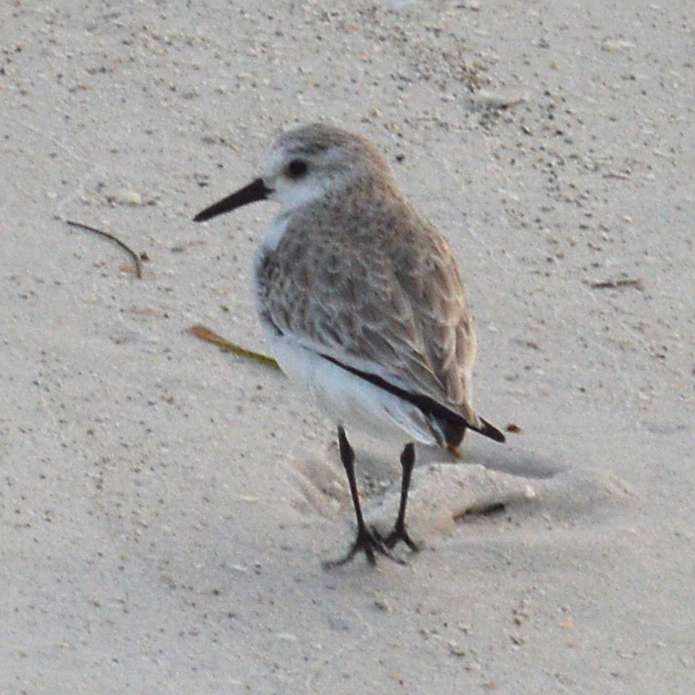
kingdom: Animalia
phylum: Chordata
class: Aves
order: Charadriiformes
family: Scolopacidae
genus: Calidris
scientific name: Calidris alba
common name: Sanderling
